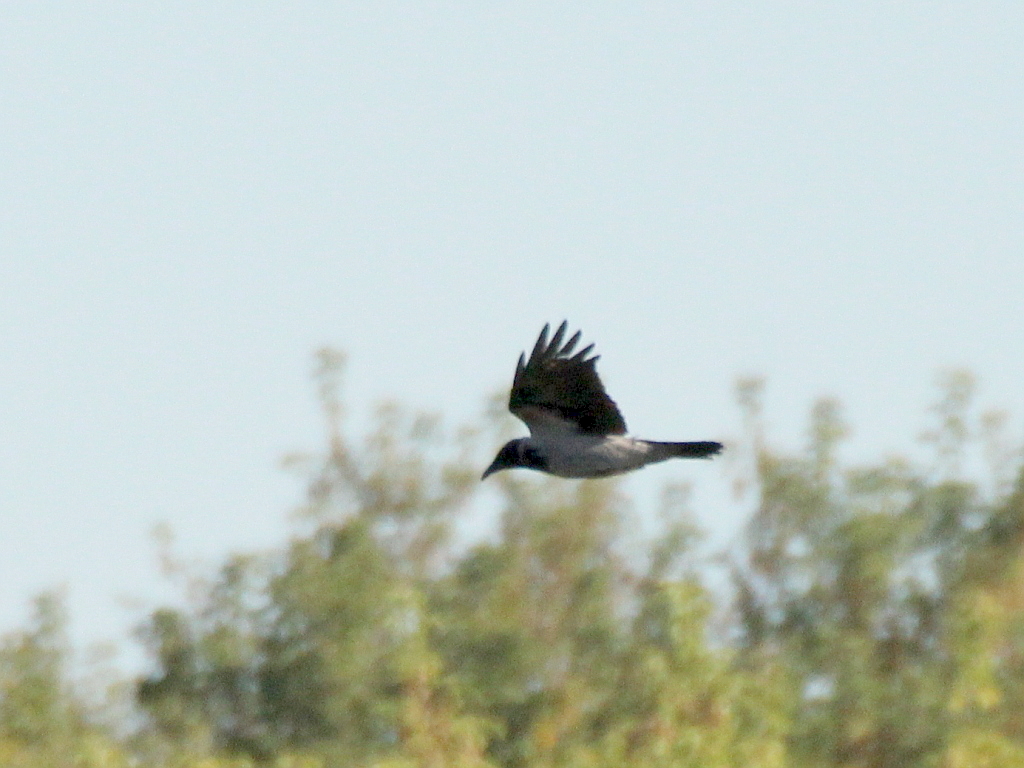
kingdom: Animalia
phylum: Chordata
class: Aves
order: Passeriformes
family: Corvidae
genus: Corvus
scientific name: Corvus cornix
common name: Hooded crow
